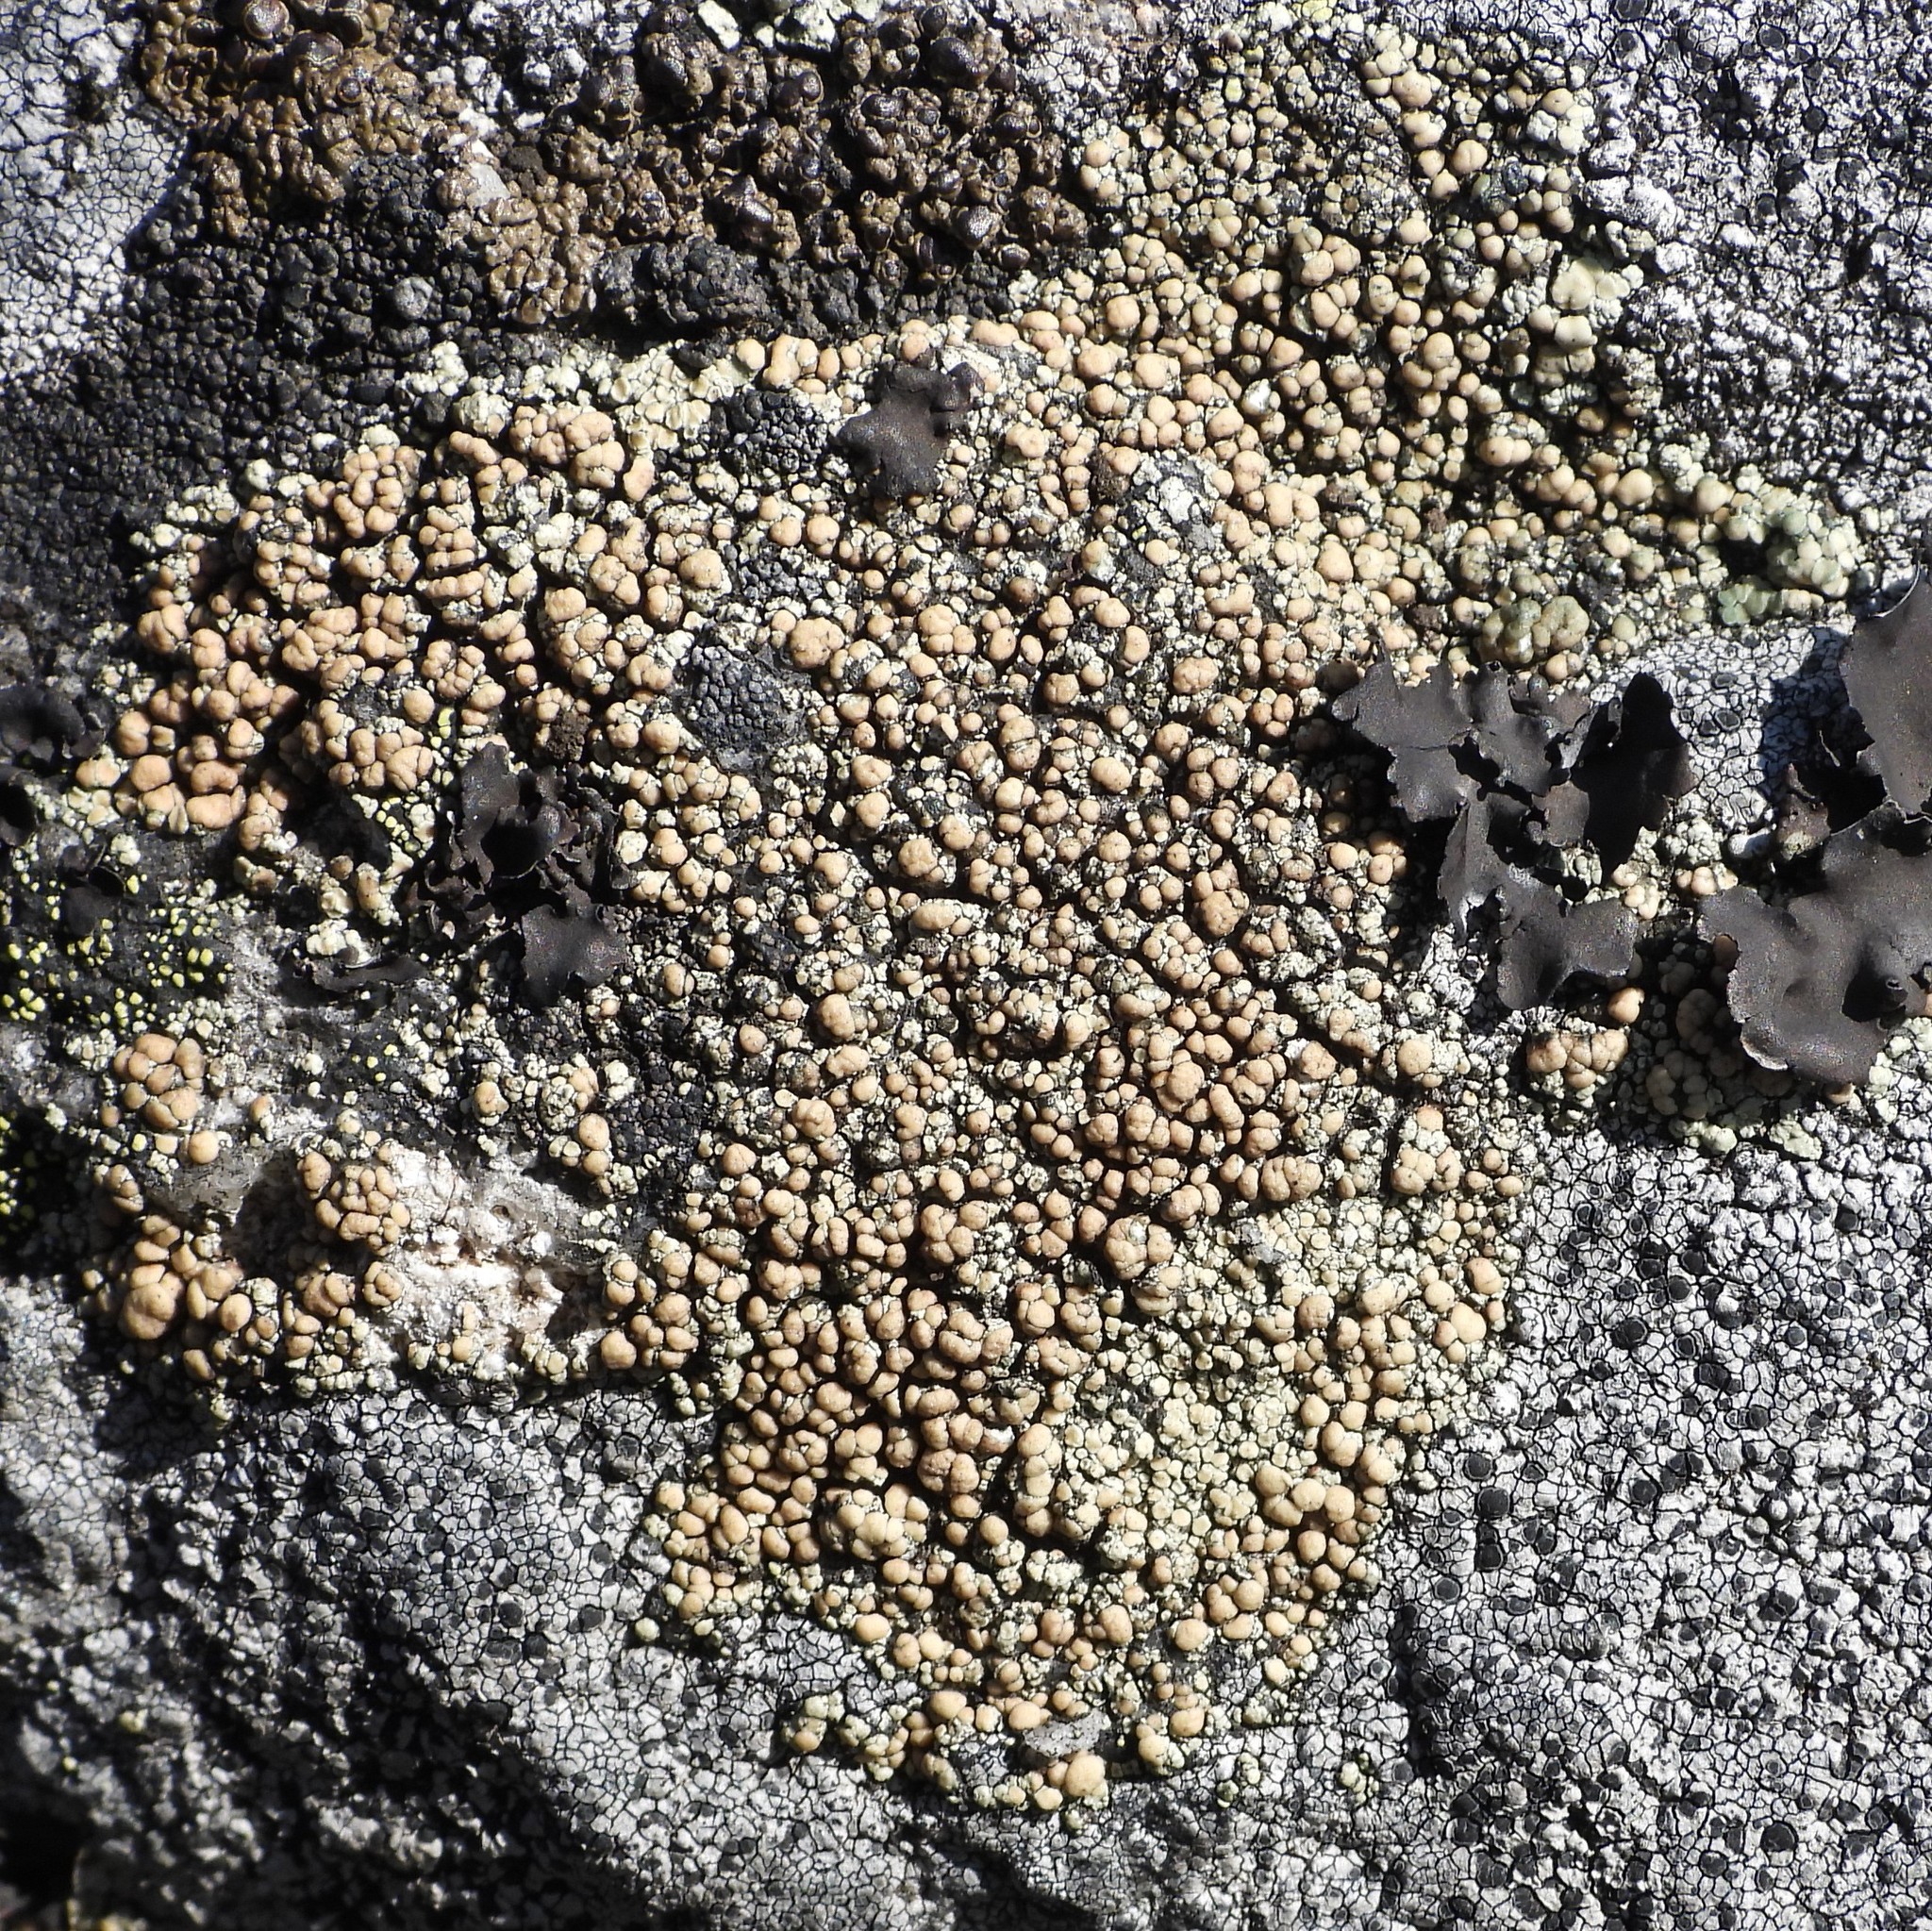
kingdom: Fungi
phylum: Ascomycota
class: Lecanoromycetes
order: Lecanorales
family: Lecanoraceae
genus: Lecanora
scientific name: Lecanora polytropa
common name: Granite-speck rim lichen
